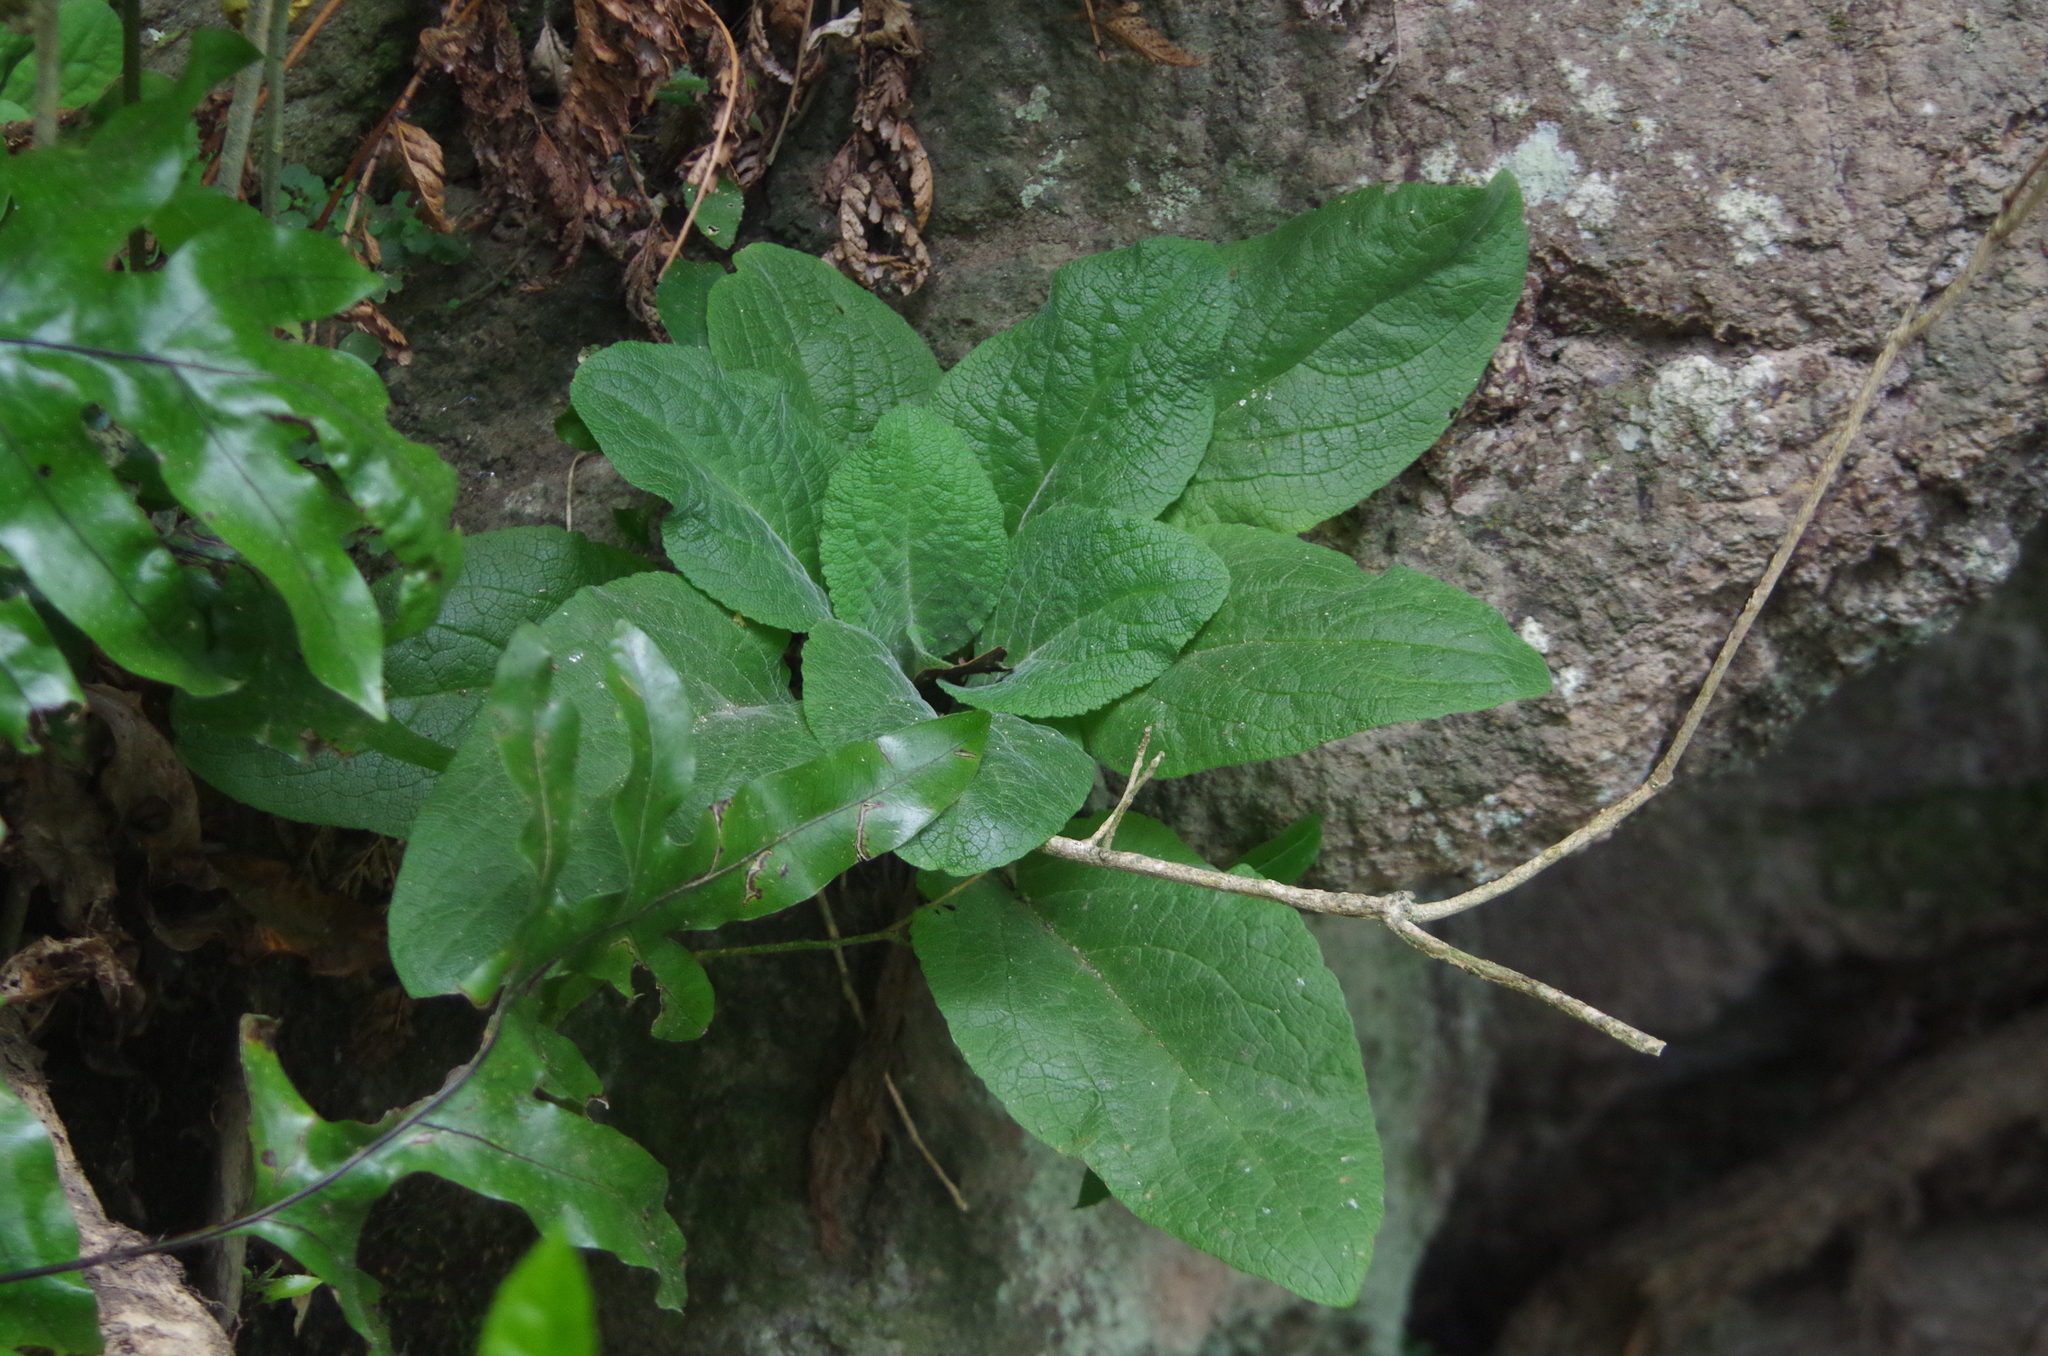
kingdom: Plantae
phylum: Tracheophyta
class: Magnoliopsida
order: Lamiales
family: Plantaginaceae
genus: Digitalis
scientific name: Digitalis purpurea
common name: Foxglove
